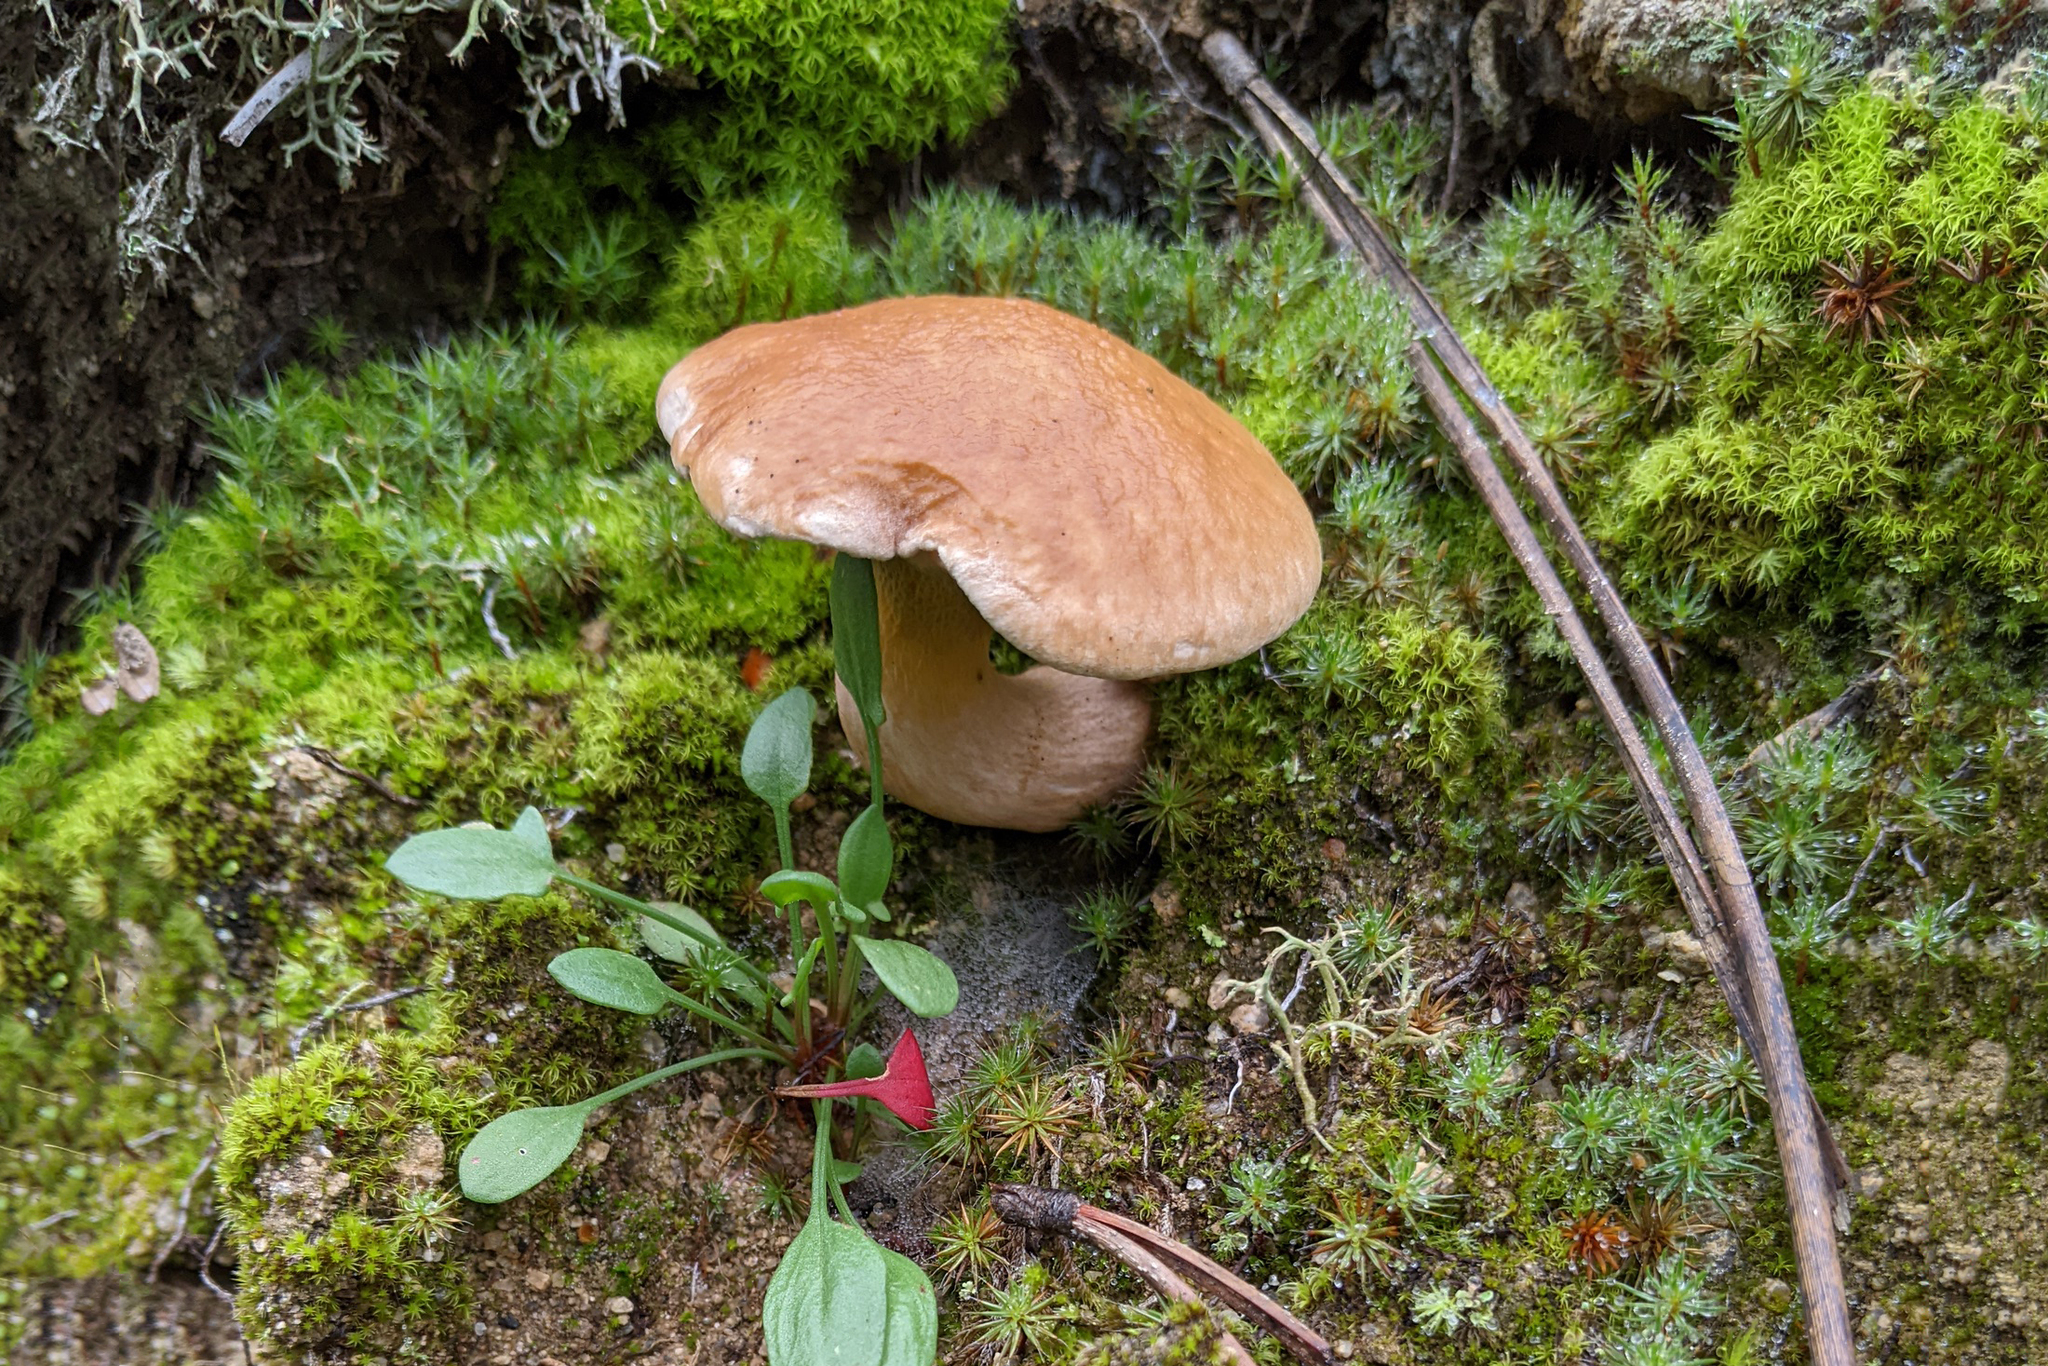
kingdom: Fungi
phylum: Basidiomycota
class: Agaricomycetes
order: Boletales
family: Suillaceae
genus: Suillus
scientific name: Suillus bovinus
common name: Bovine bolete
